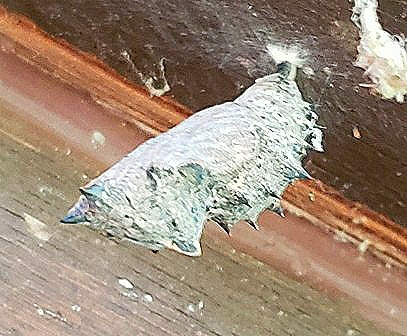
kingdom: Animalia
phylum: Arthropoda
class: Insecta
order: Lepidoptera
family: Nymphalidae
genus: Nymphalis
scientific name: Nymphalis antiopa
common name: Camberwell beauty
